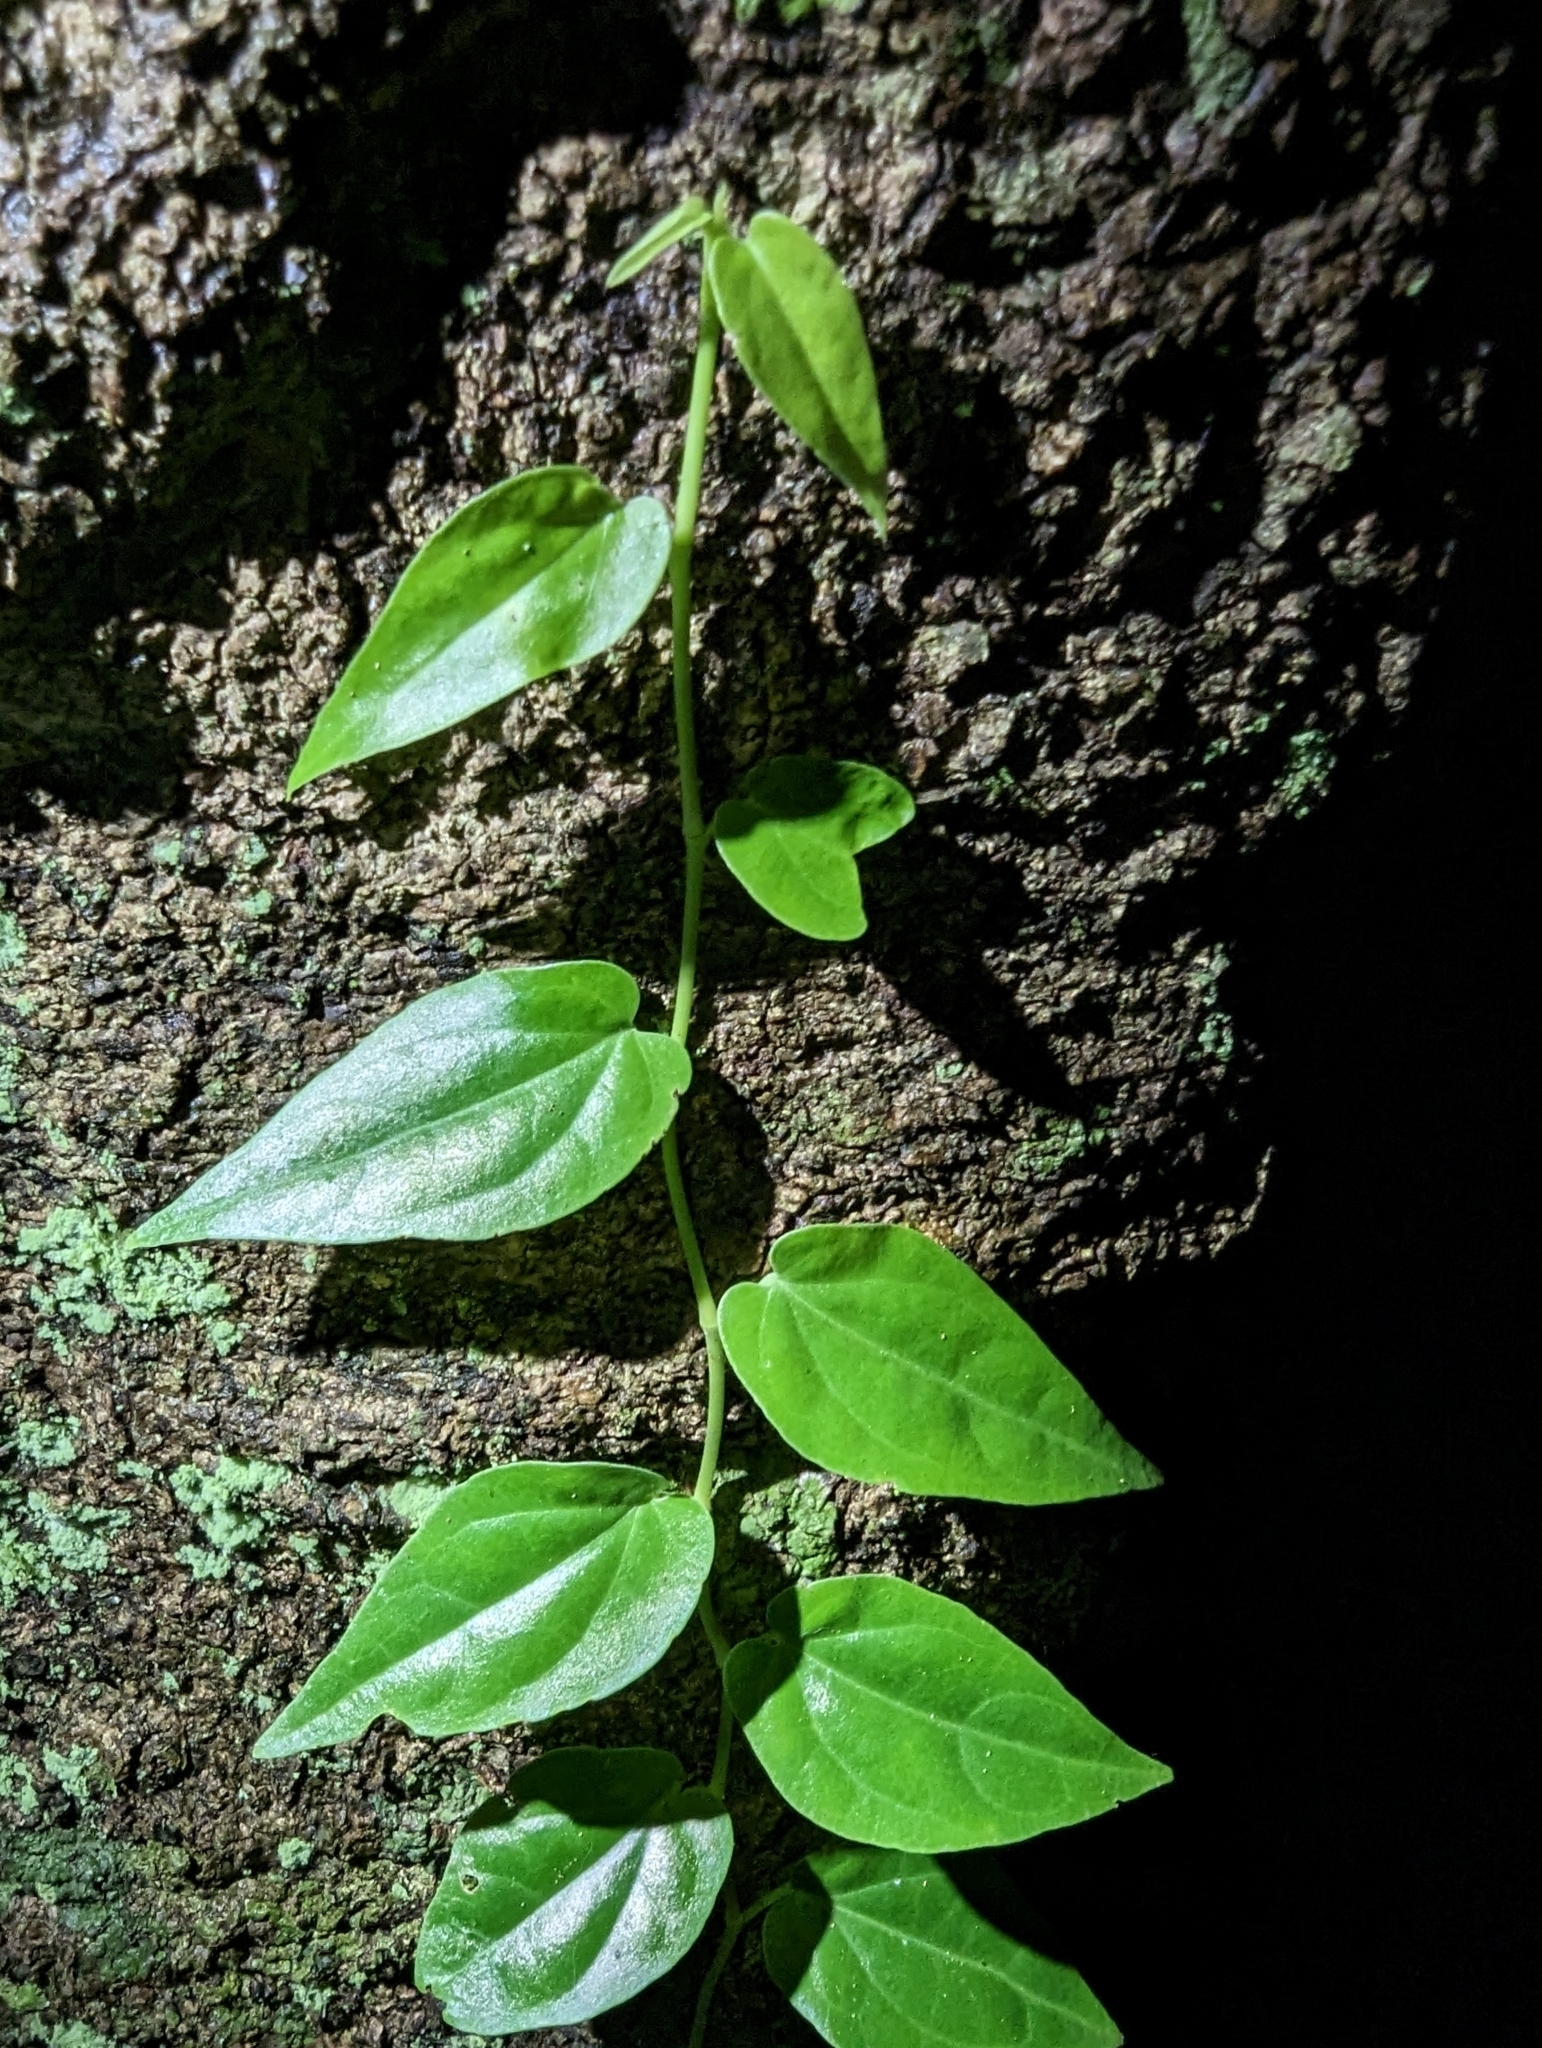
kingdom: Plantae
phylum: Tracheophyta
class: Magnoliopsida
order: Piperales
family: Piperaceae
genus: Piper
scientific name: Piper hederaceum
